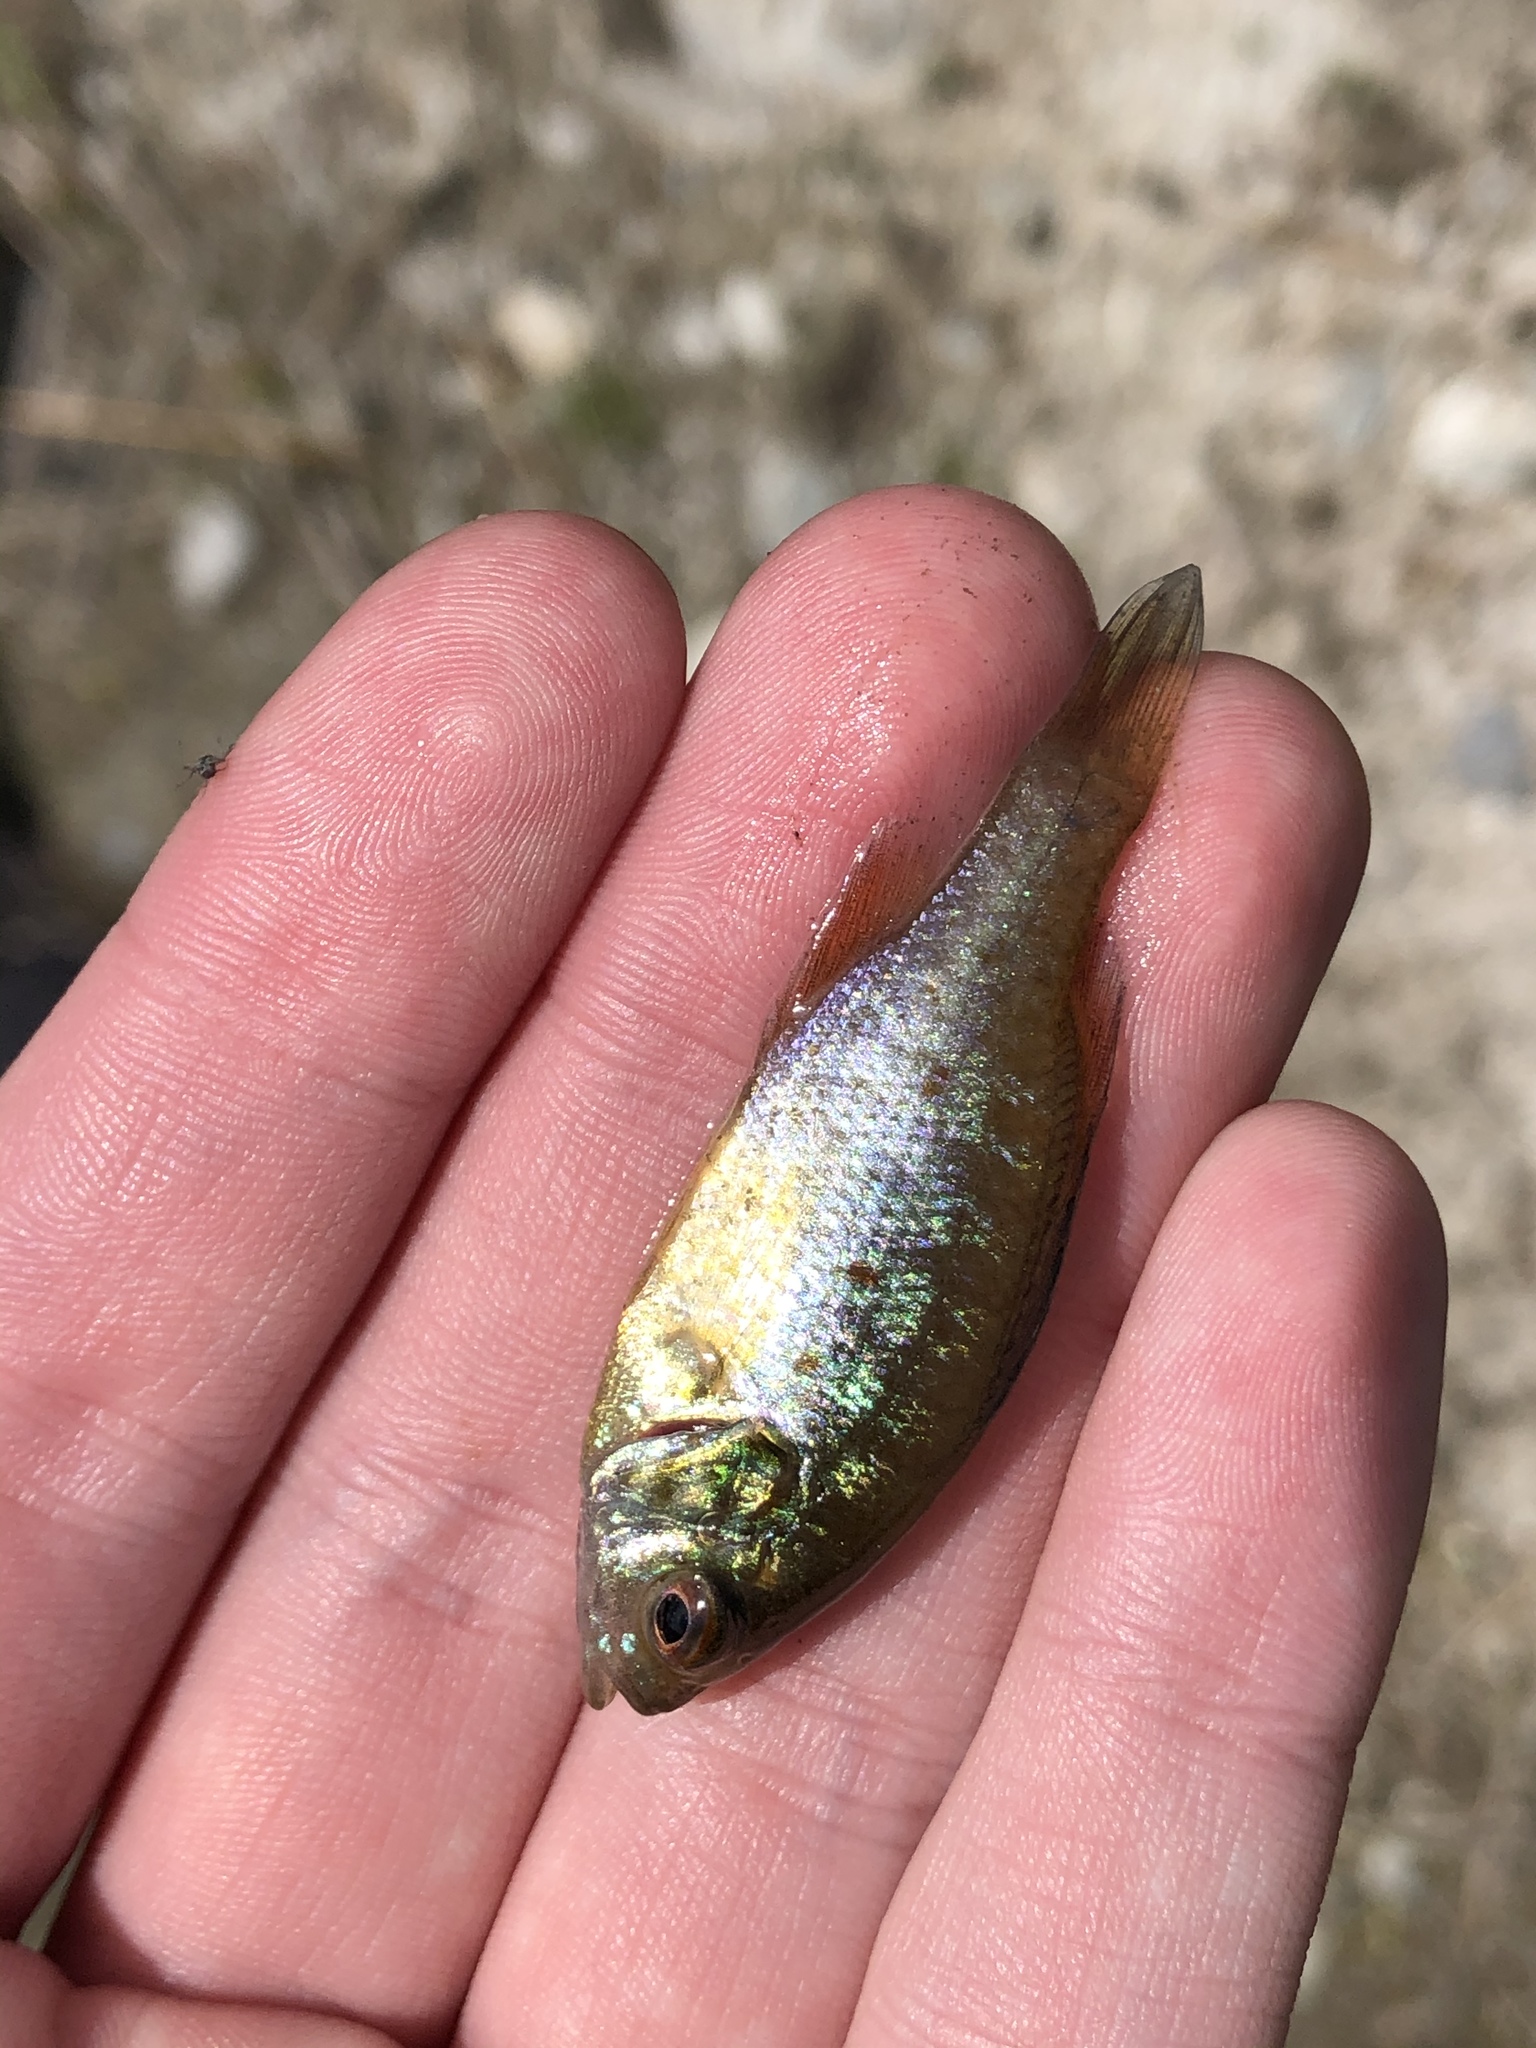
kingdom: Animalia
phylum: Chordata
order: Perciformes
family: Centrarchidae
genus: Lepomis
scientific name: Lepomis gibbosus
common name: Pumpkinseed
